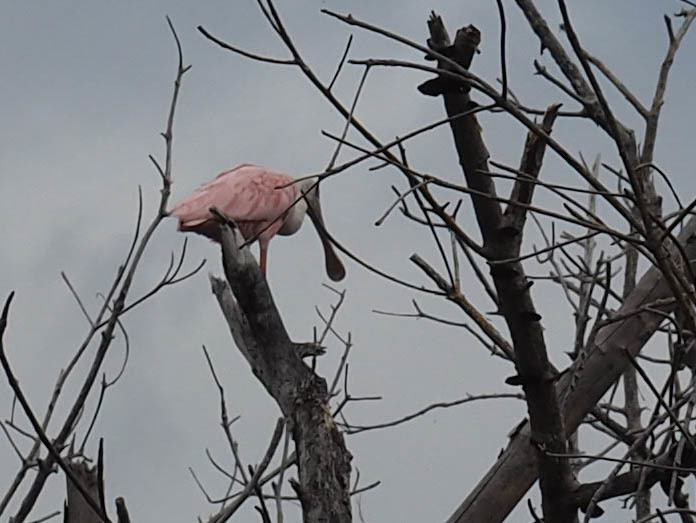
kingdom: Animalia
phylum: Chordata
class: Aves
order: Pelecaniformes
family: Threskiornithidae
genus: Platalea
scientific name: Platalea ajaja
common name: Roseate spoonbill
